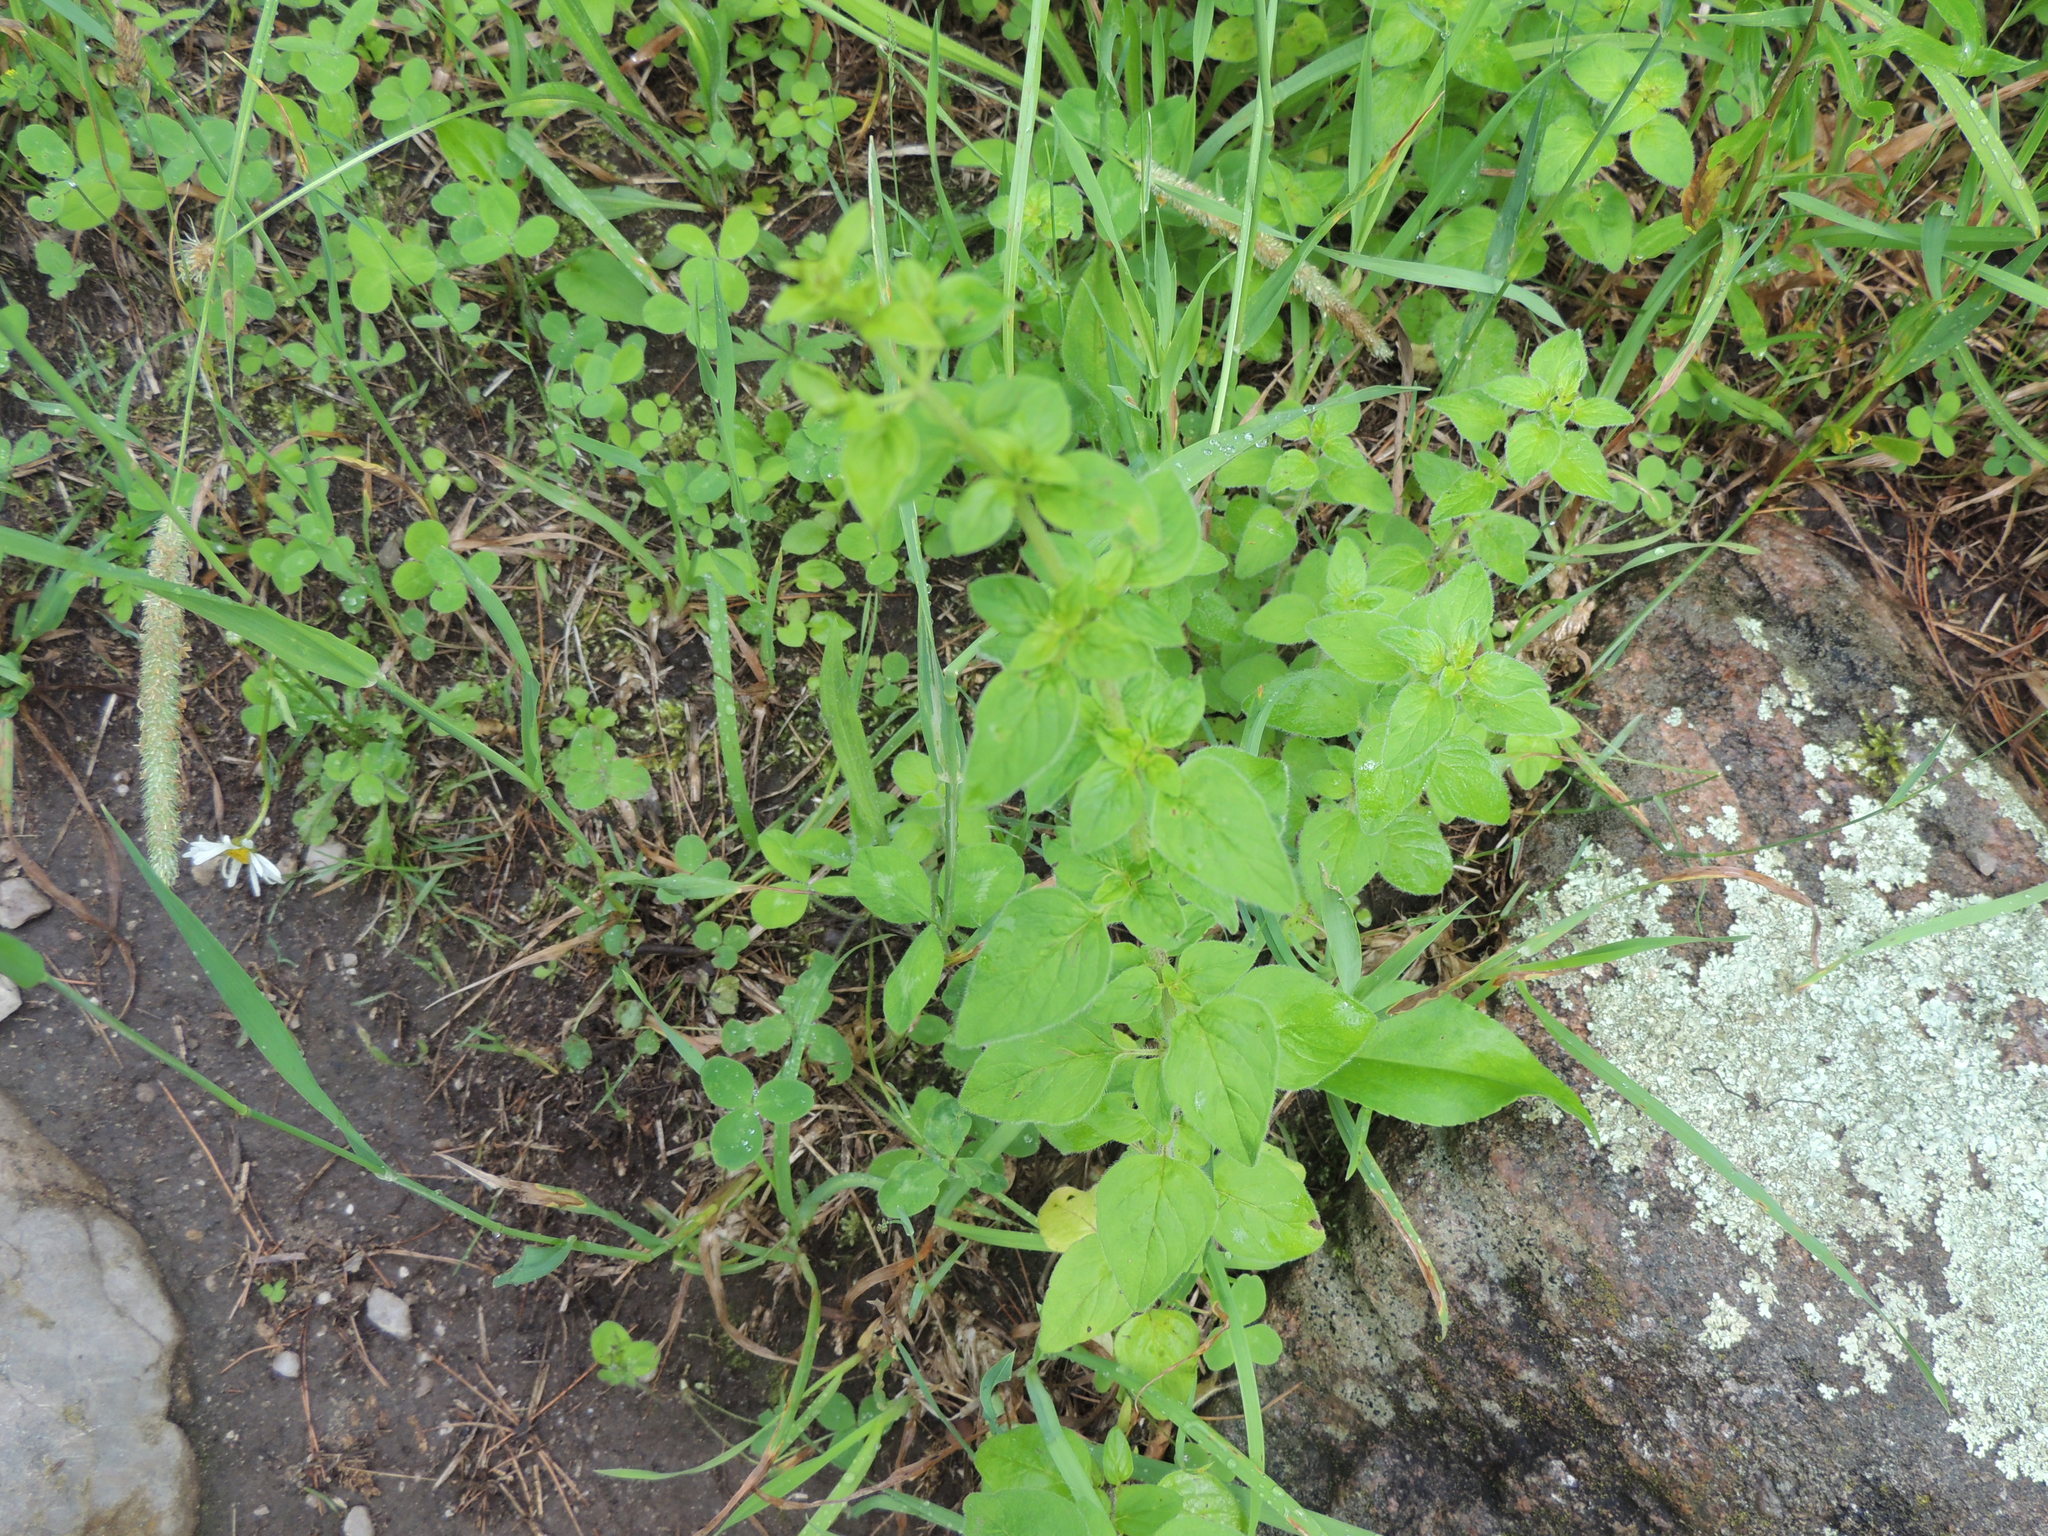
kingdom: Plantae
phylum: Tracheophyta
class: Magnoliopsida
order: Lamiales
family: Lamiaceae
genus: Origanum
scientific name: Origanum vulgare
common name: Wild marjoram
